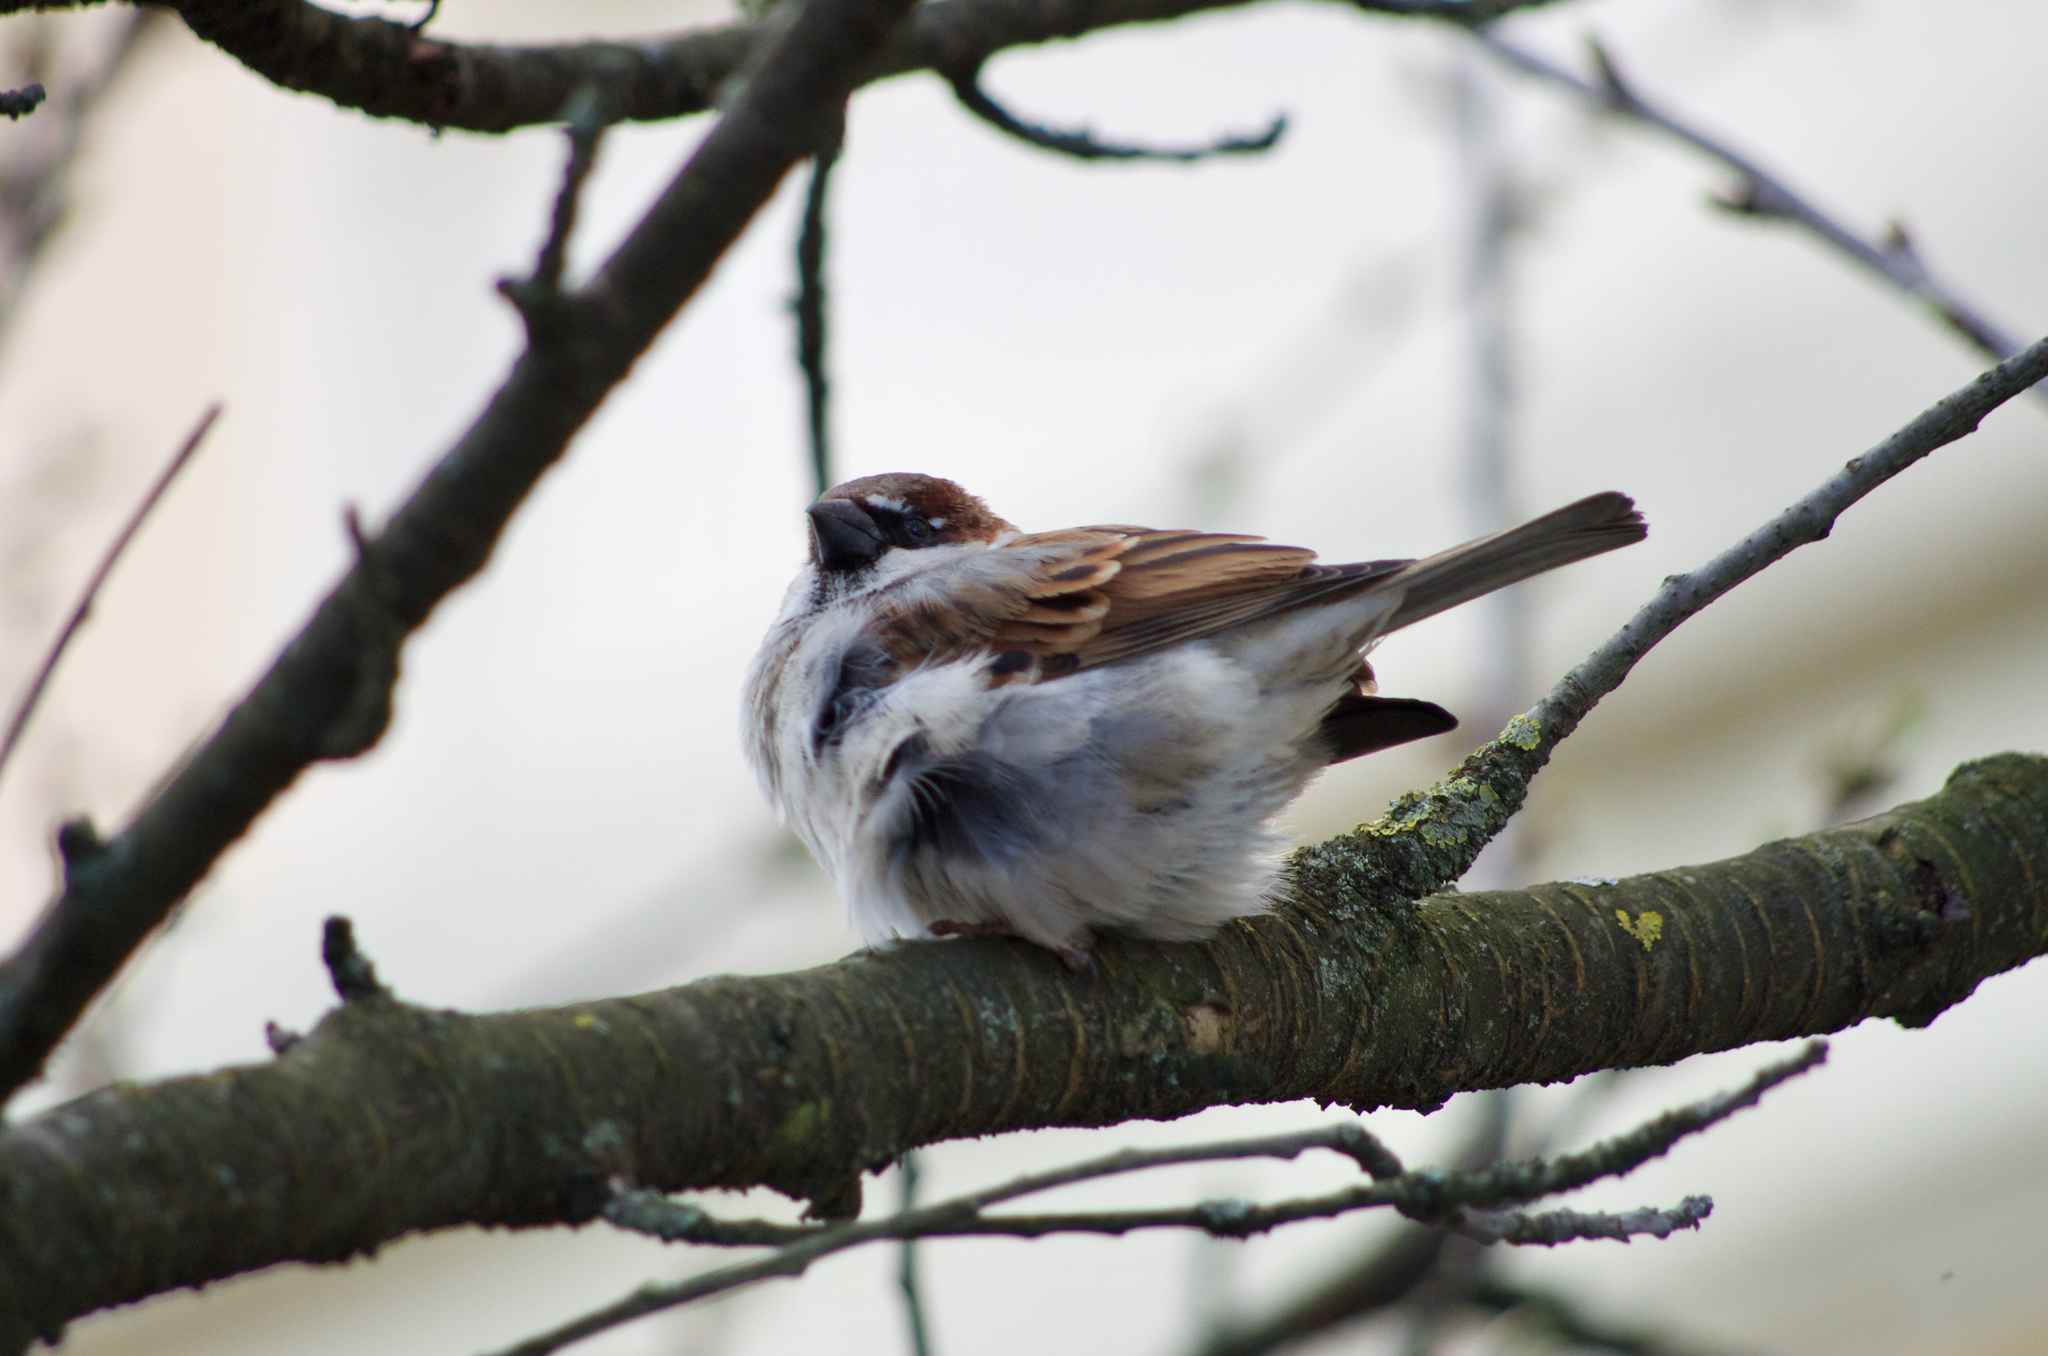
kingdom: Animalia
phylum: Chordata
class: Aves
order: Passeriformes
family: Passeridae
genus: Passer
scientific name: Passer domesticus
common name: House sparrow
